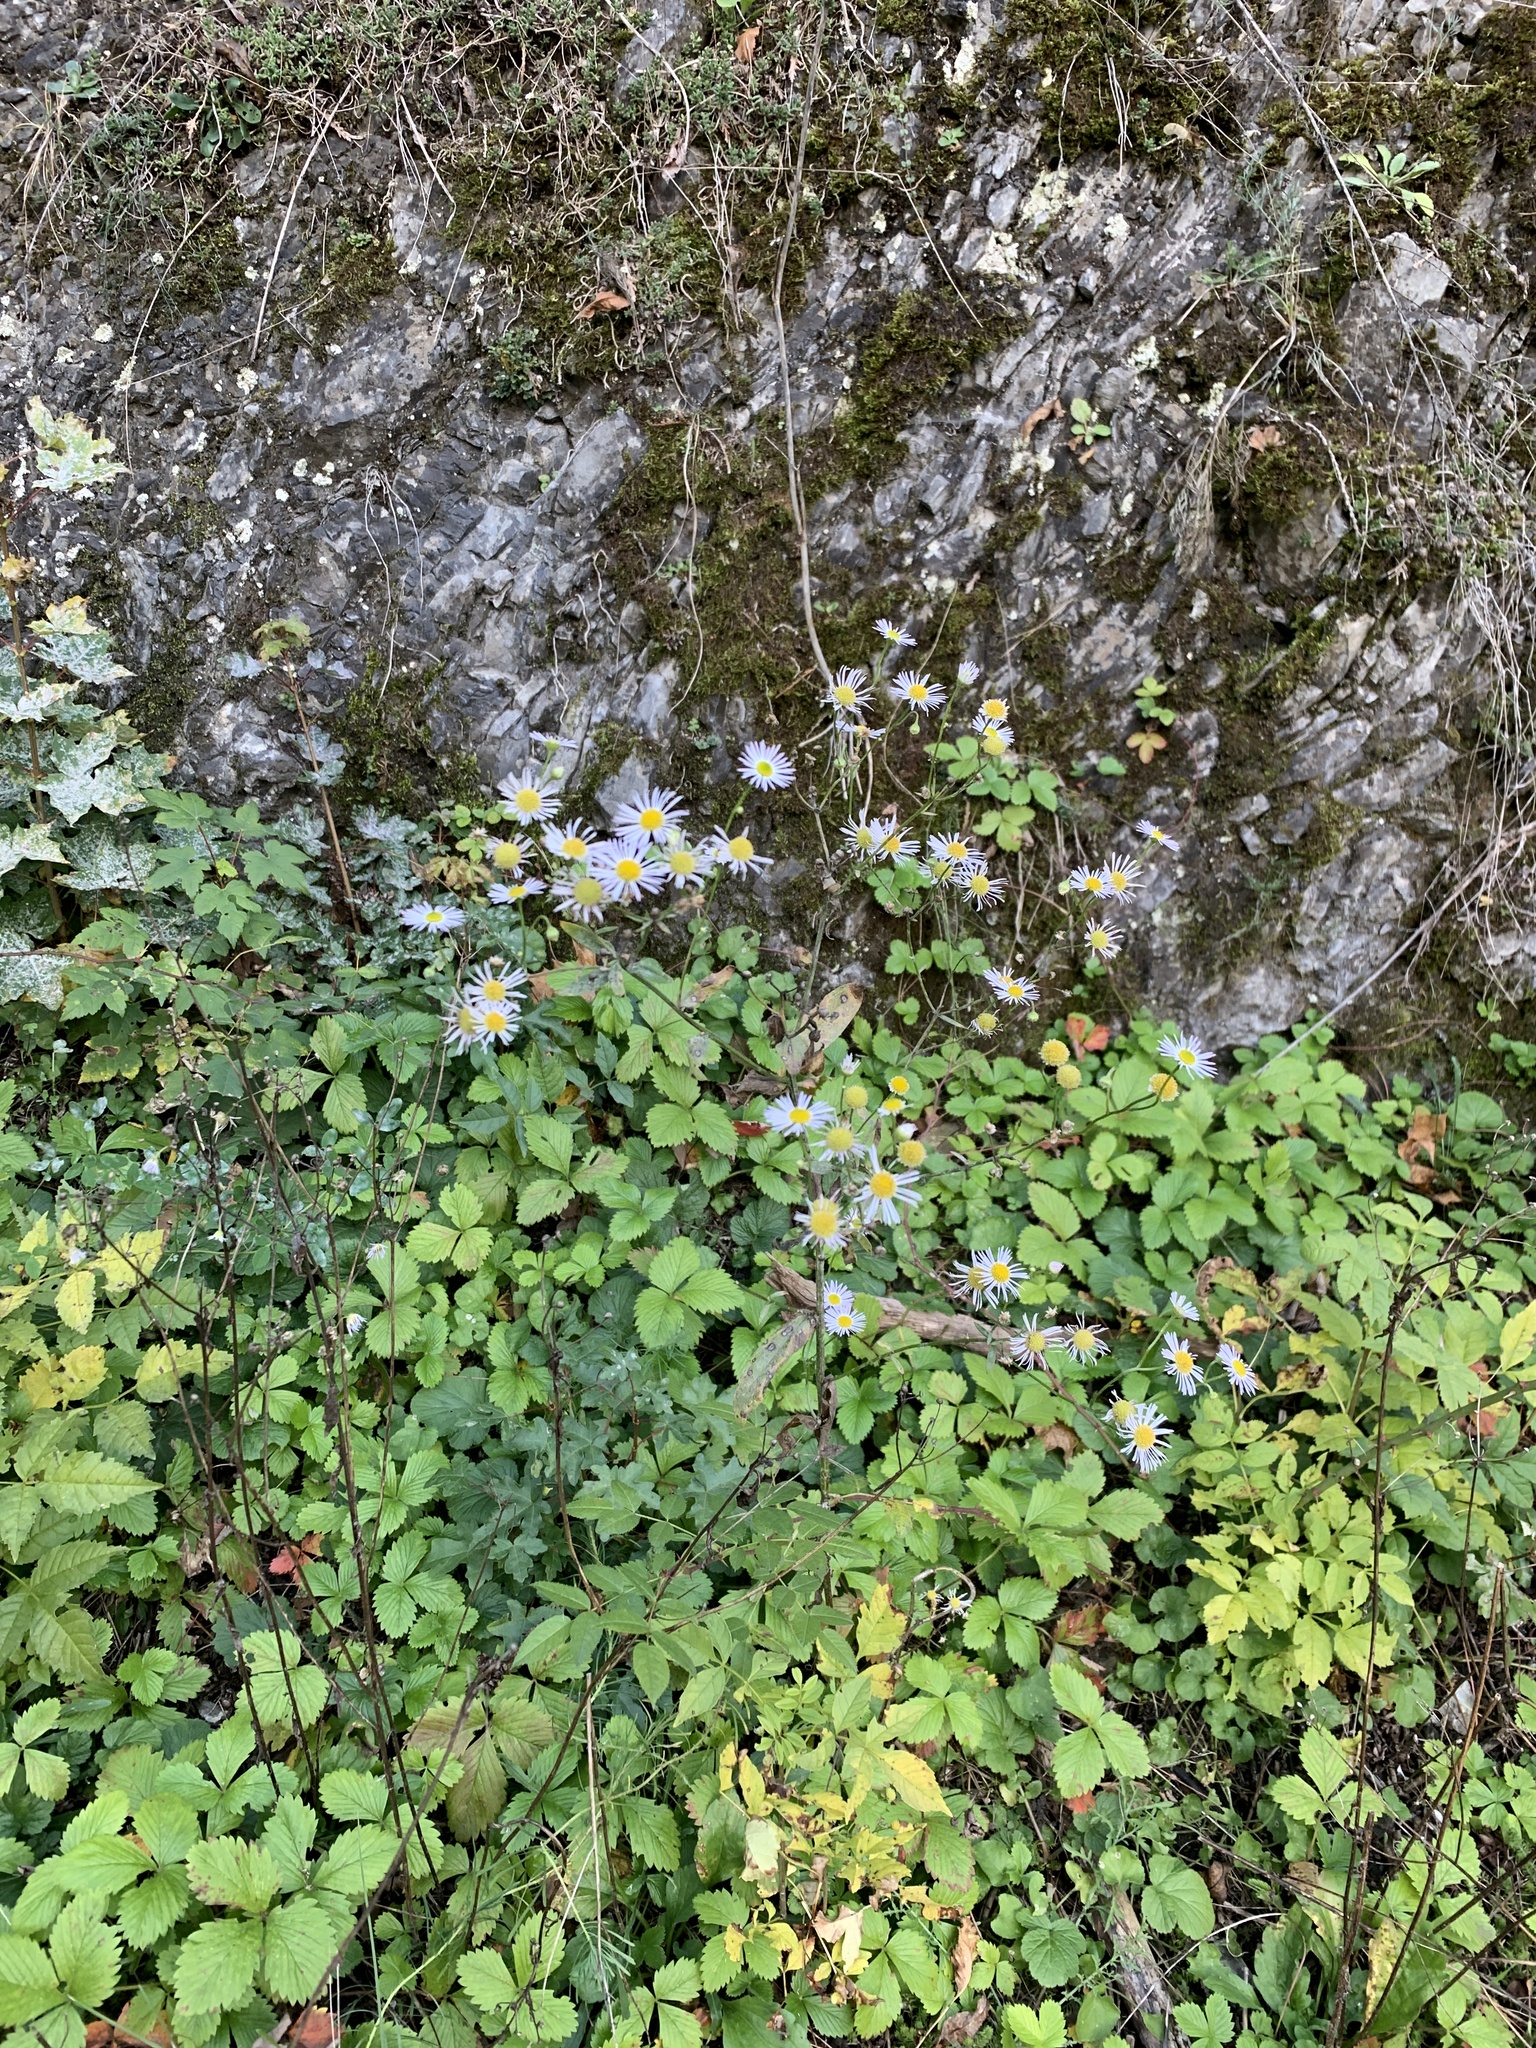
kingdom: Plantae
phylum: Tracheophyta
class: Magnoliopsida
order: Asterales
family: Asteraceae
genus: Erigeron
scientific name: Erigeron annuus
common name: Tall fleabane
